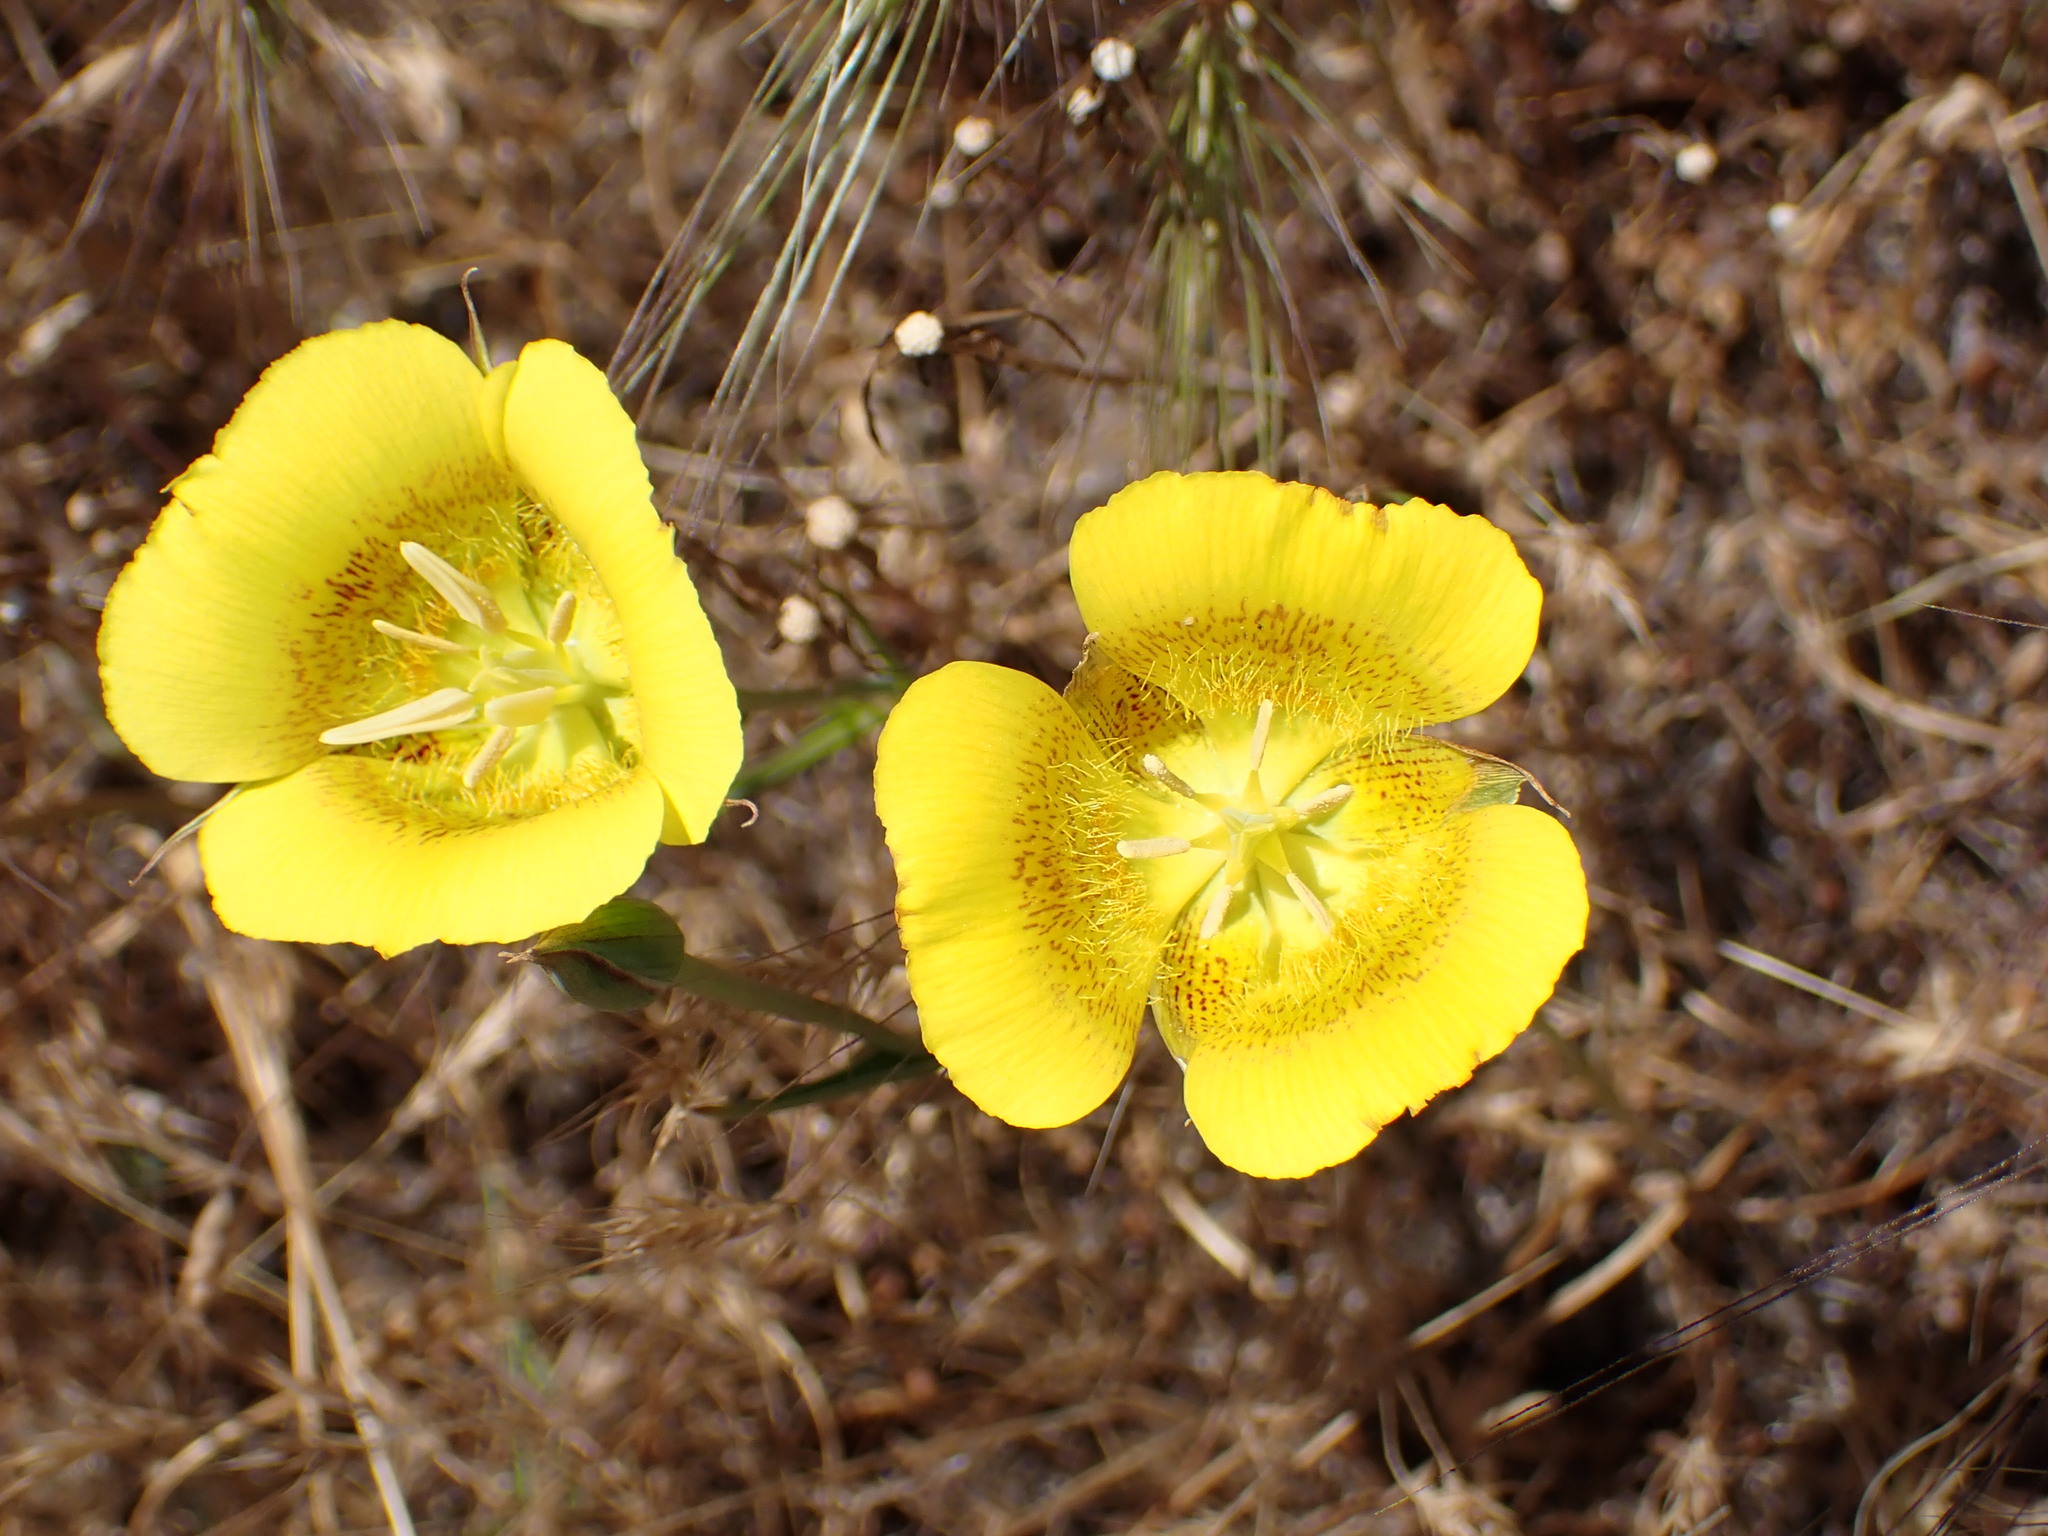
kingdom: Plantae
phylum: Tracheophyta
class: Liliopsida
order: Liliales
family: Liliaceae
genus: Calochortus
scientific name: Calochortus luteus
